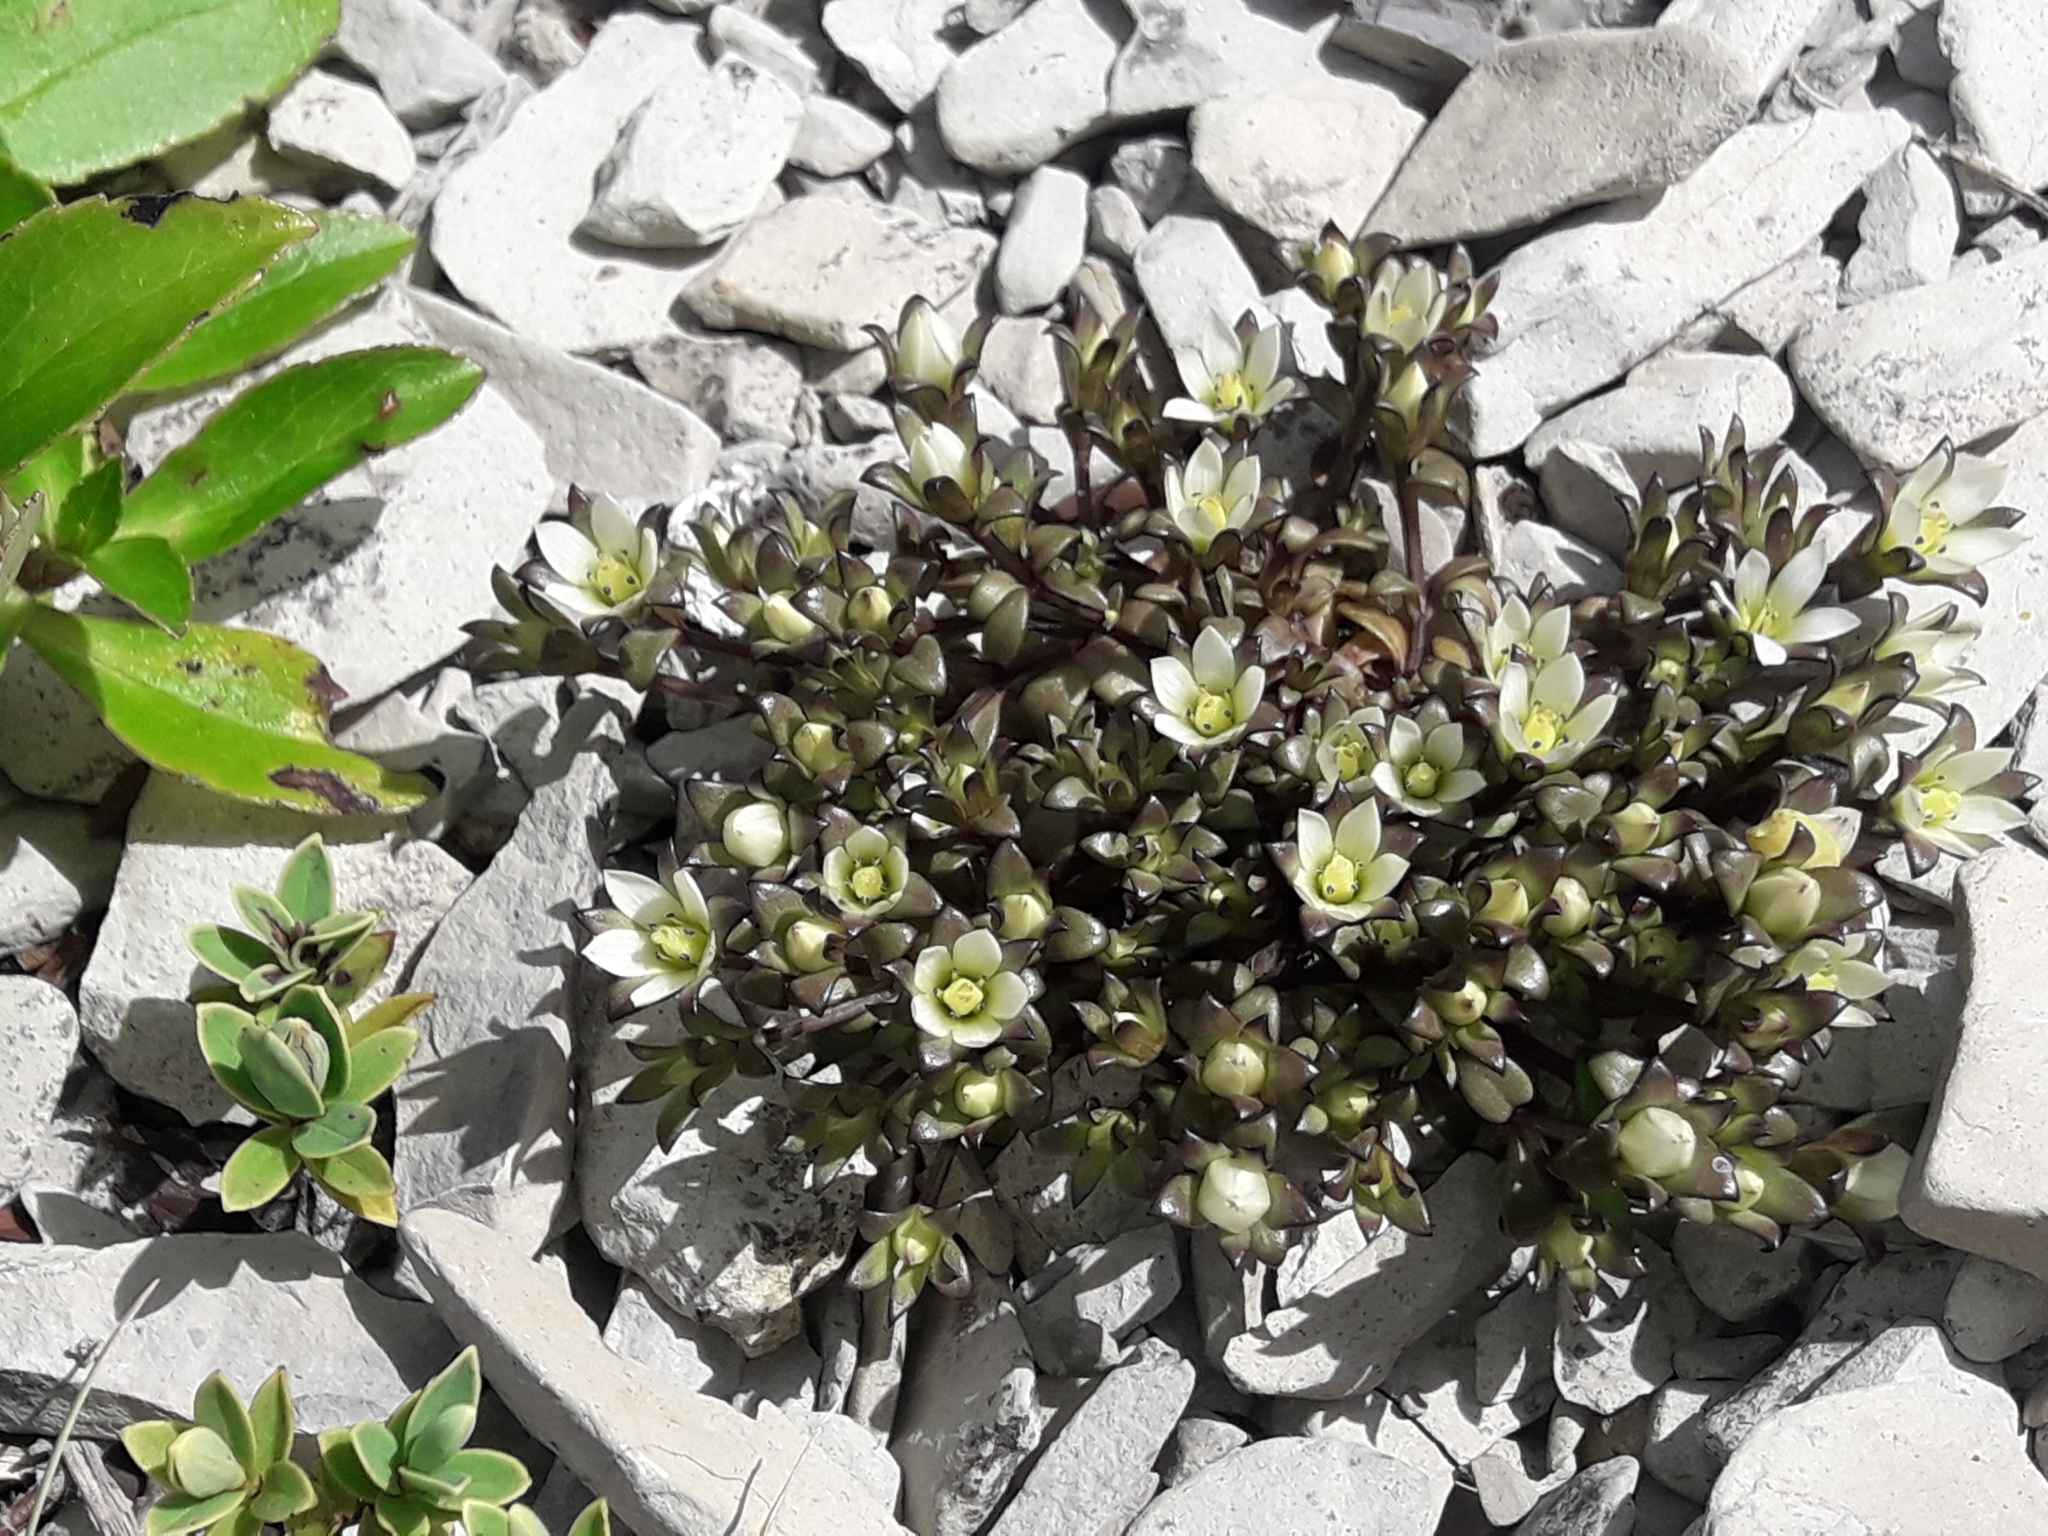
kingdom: Plantae
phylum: Tracheophyta
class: Magnoliopsida
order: Gentianales
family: Gentianaceae
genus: Gentianella
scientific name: Gentianella filipes
